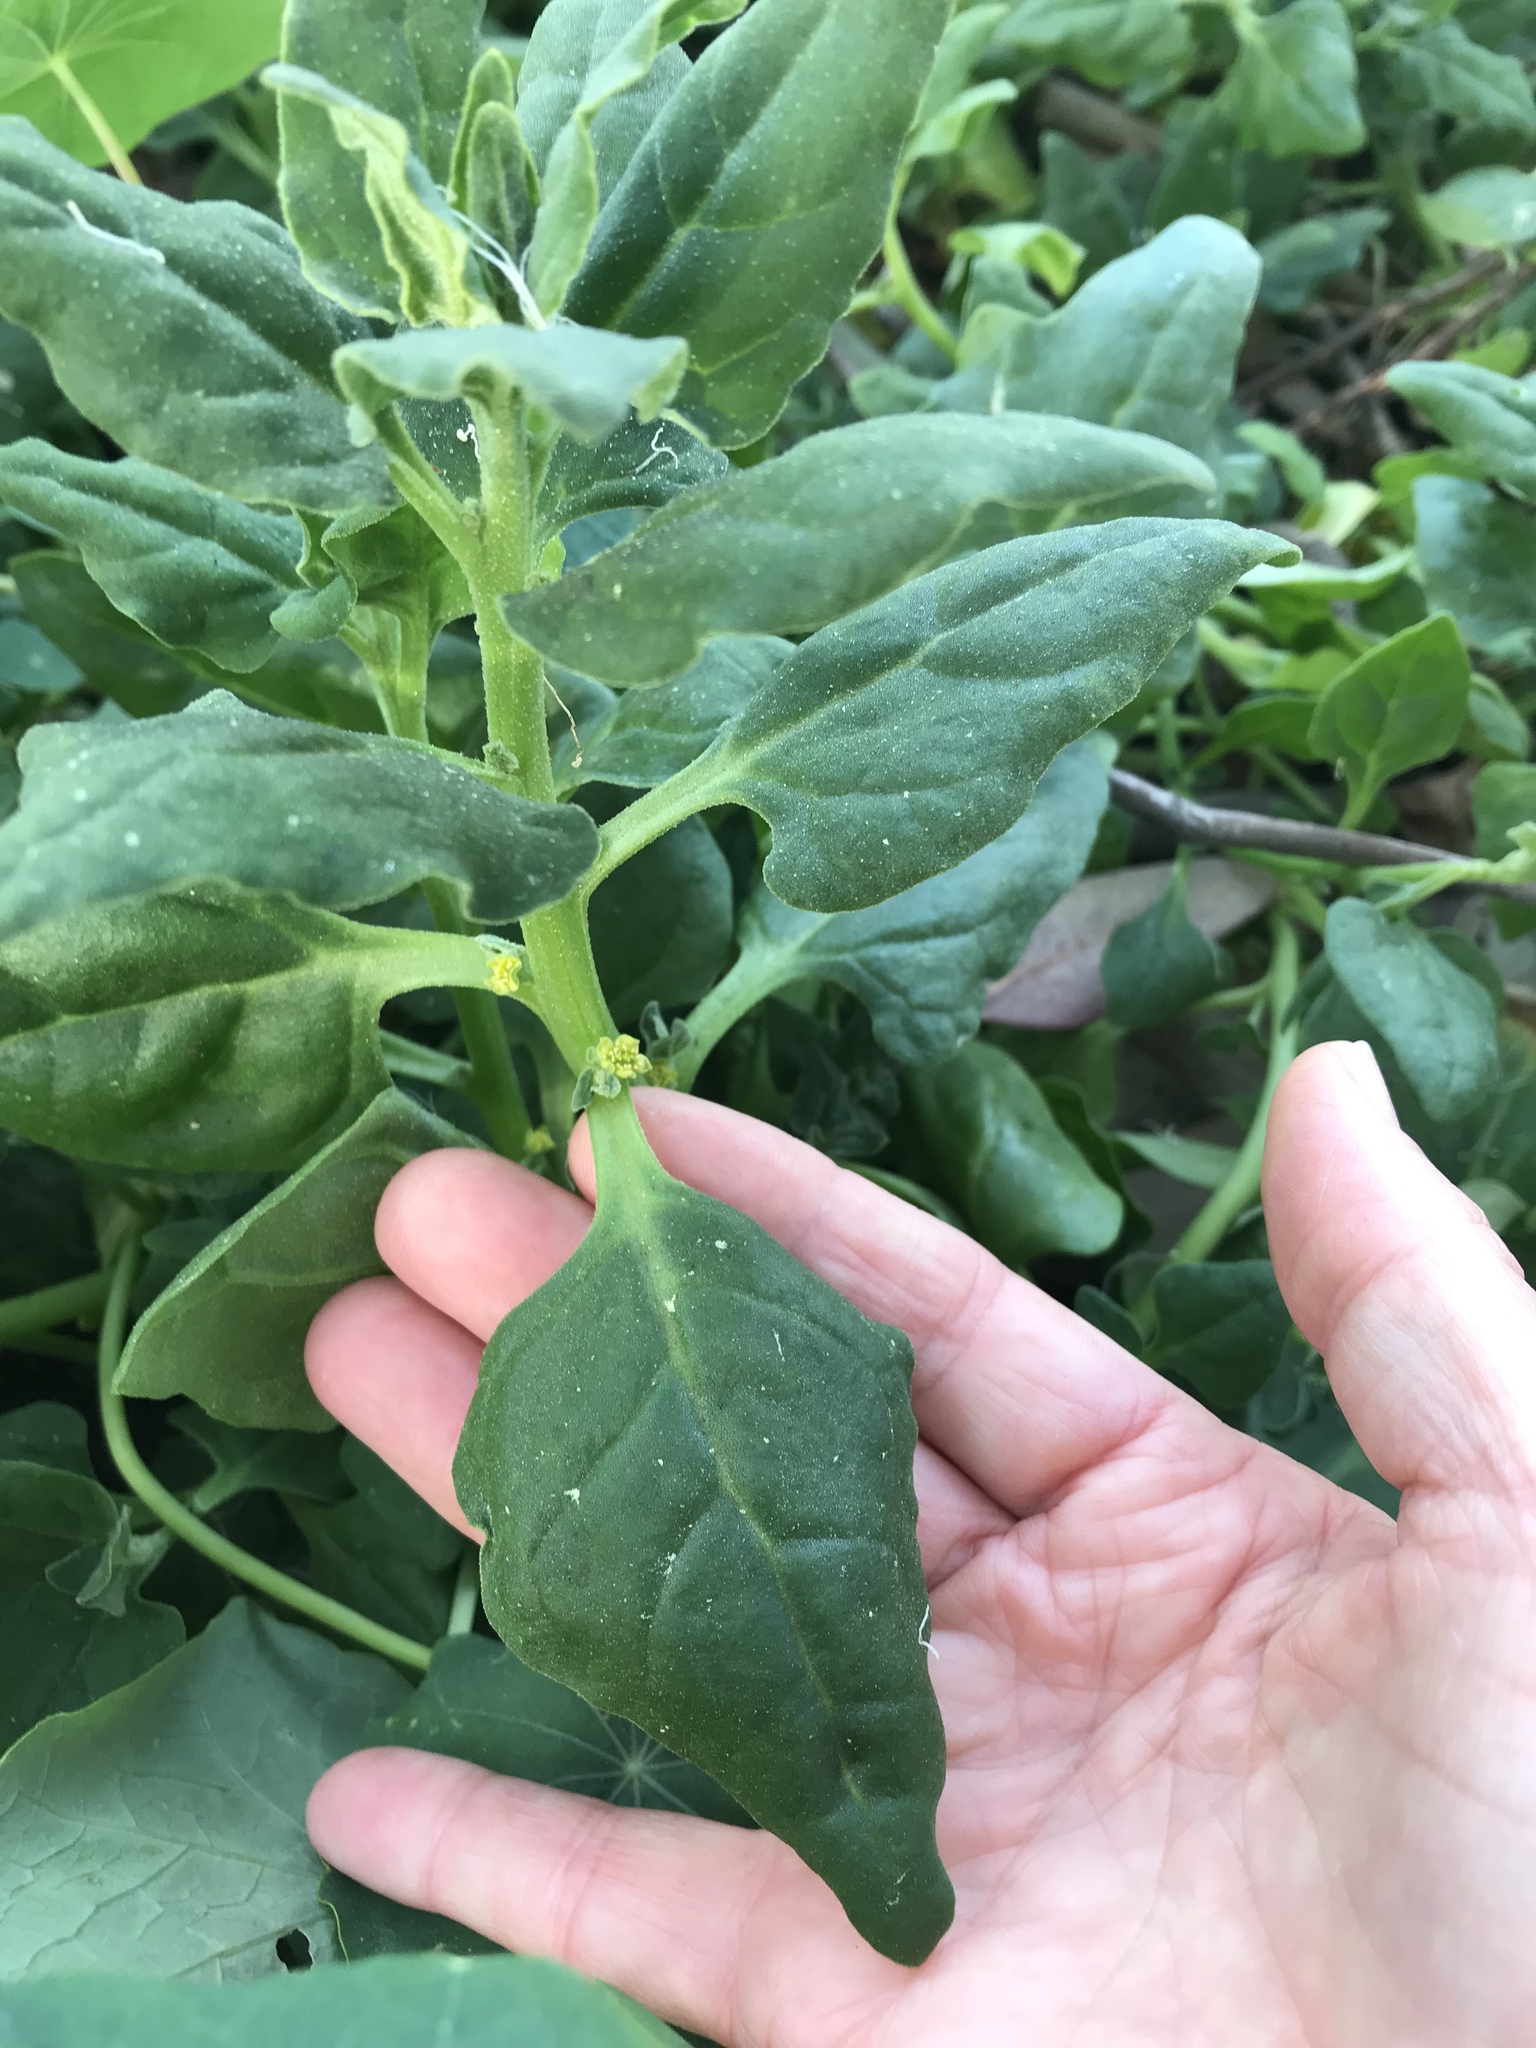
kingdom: Plantae
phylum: Tracheophyta
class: Magnoliopsida
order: Caryophyllales
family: Aizoaceae
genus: Tetragonia
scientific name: Tetragonia tetragonoides
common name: New zealand-spinach
